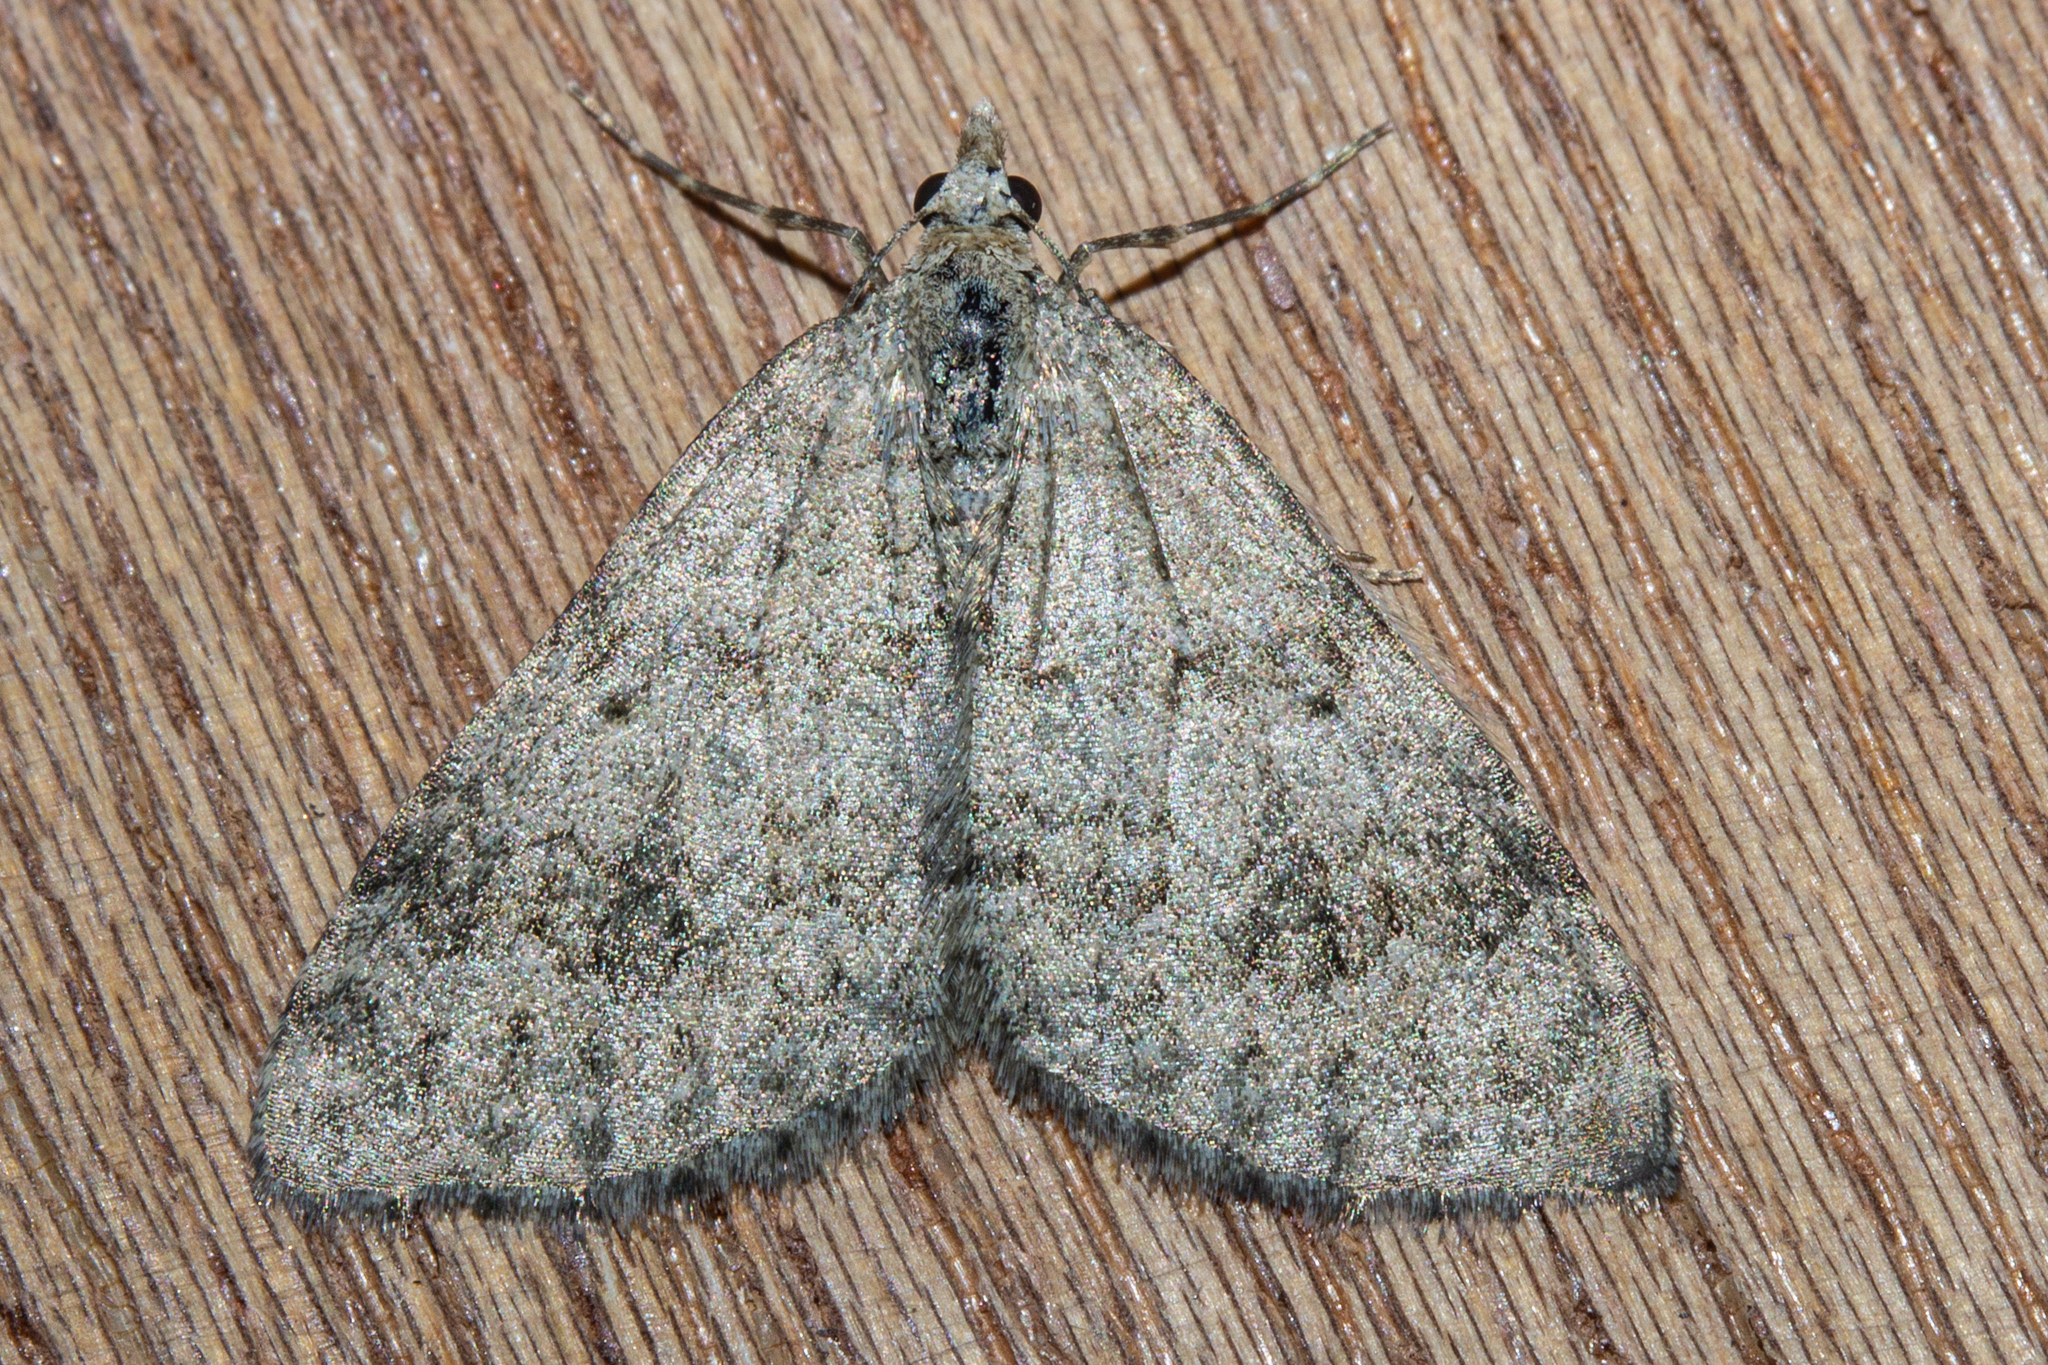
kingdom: Animalia
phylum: Arthropoda
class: Insecta
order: Lepidoptera
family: Geometridae
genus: Helastia
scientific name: Helastia corcularia
